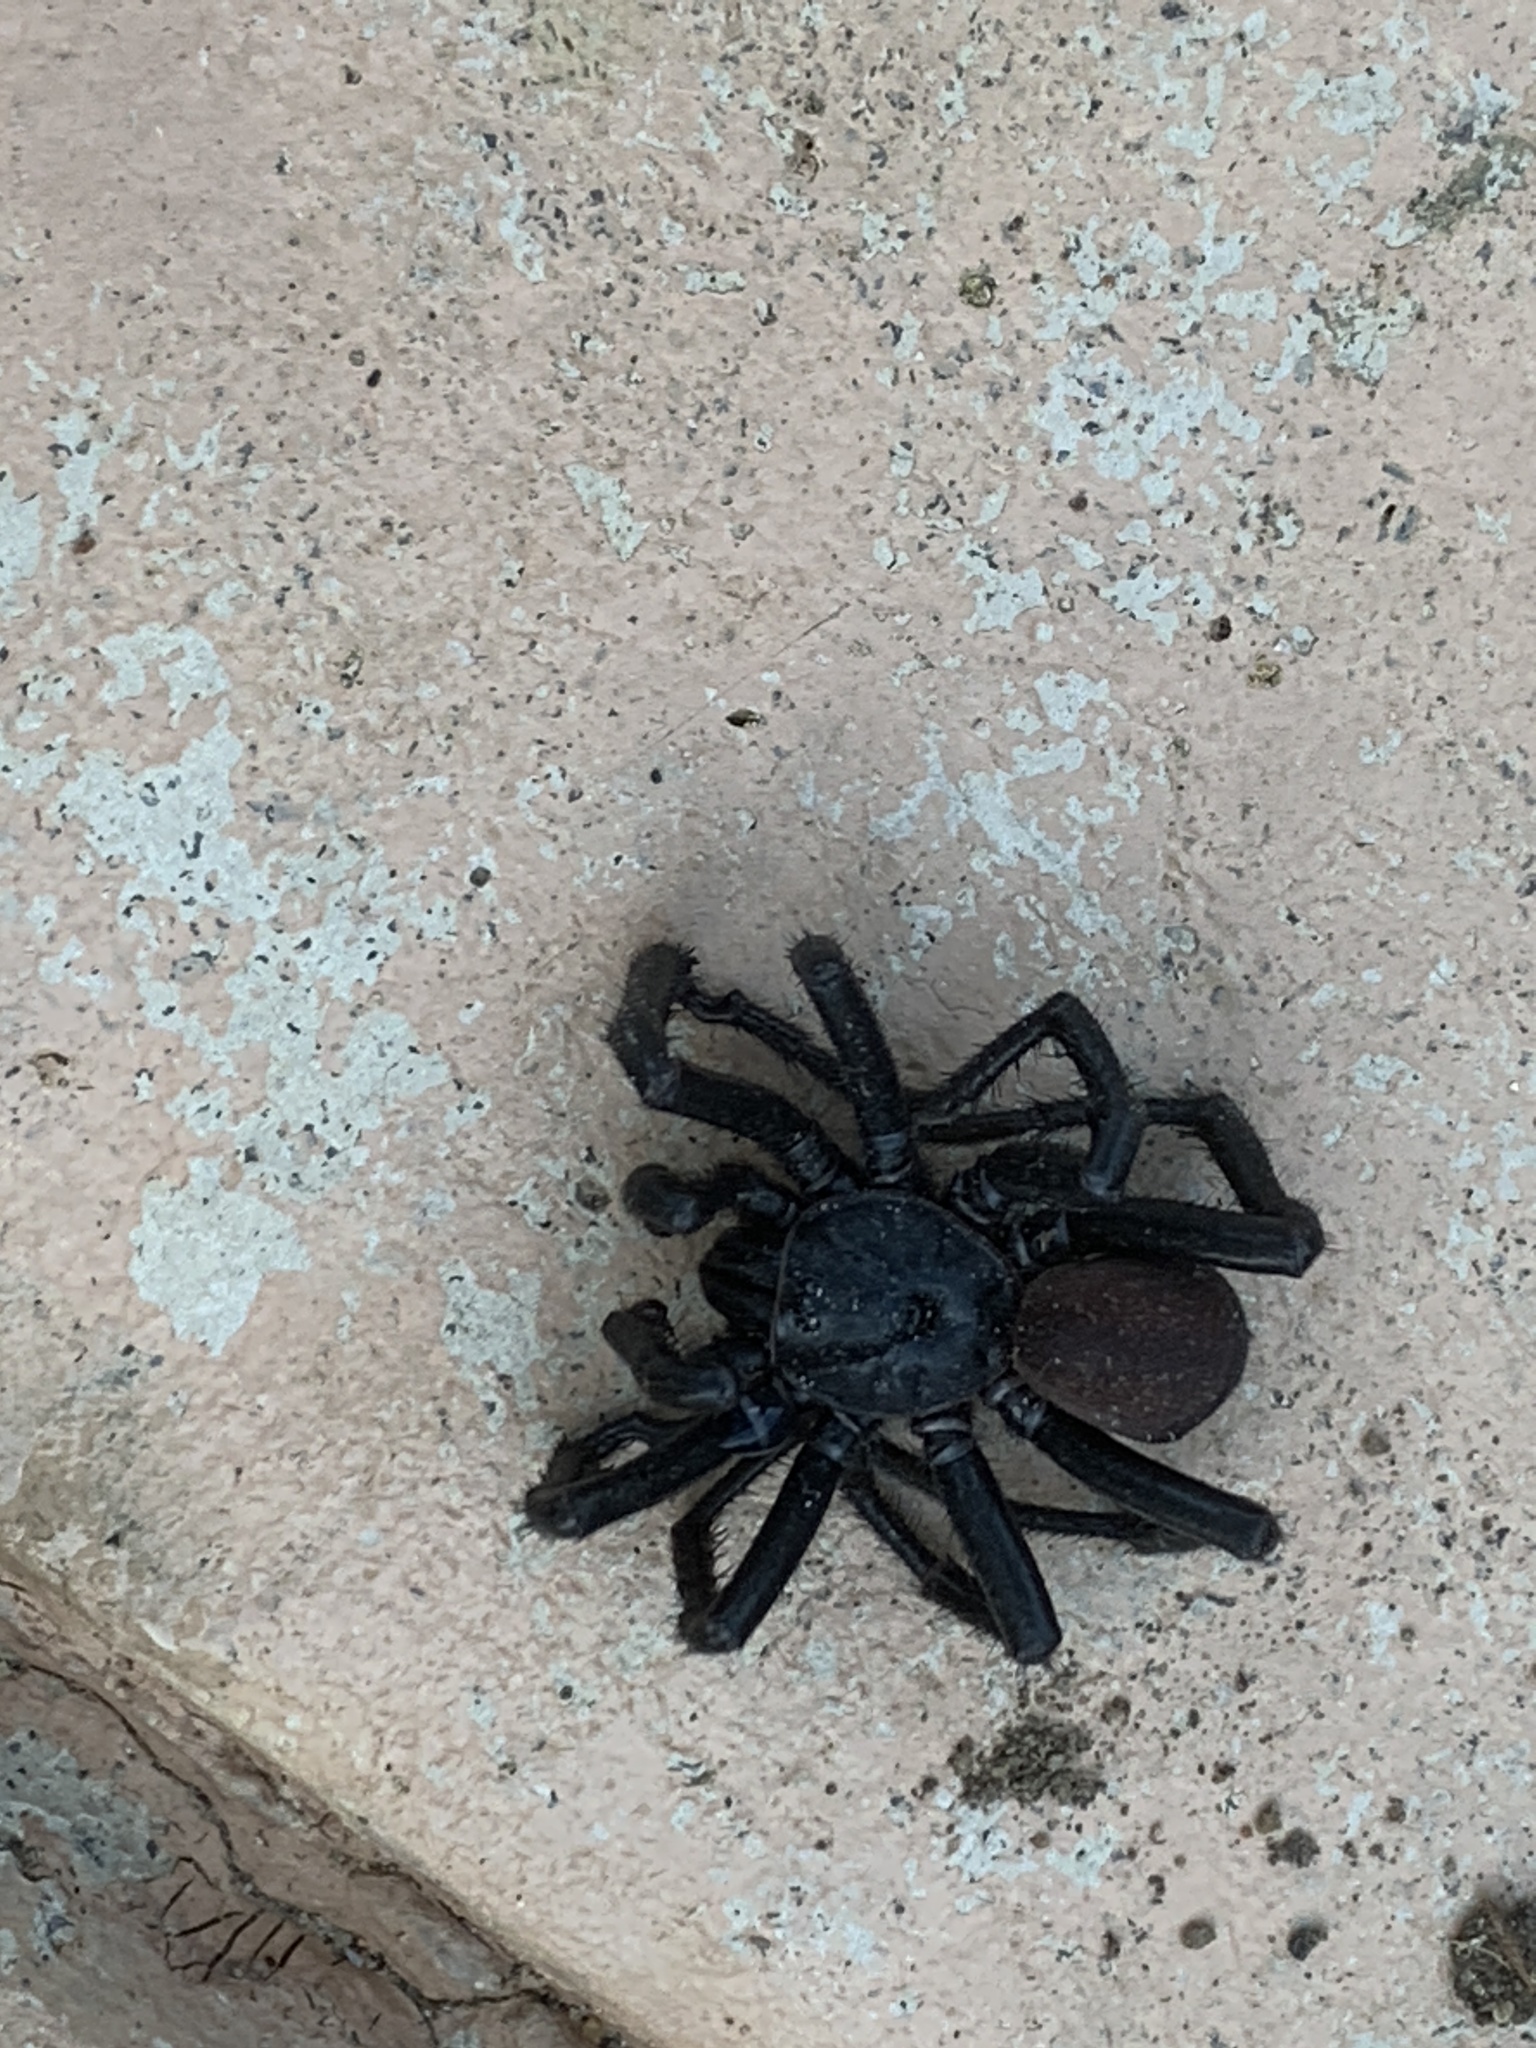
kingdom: Animalia
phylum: Arthropoda
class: Arachnida
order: Araneae
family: Halonoproctidae
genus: Bothriocyrtum
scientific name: Bothriocyrtum californicum
